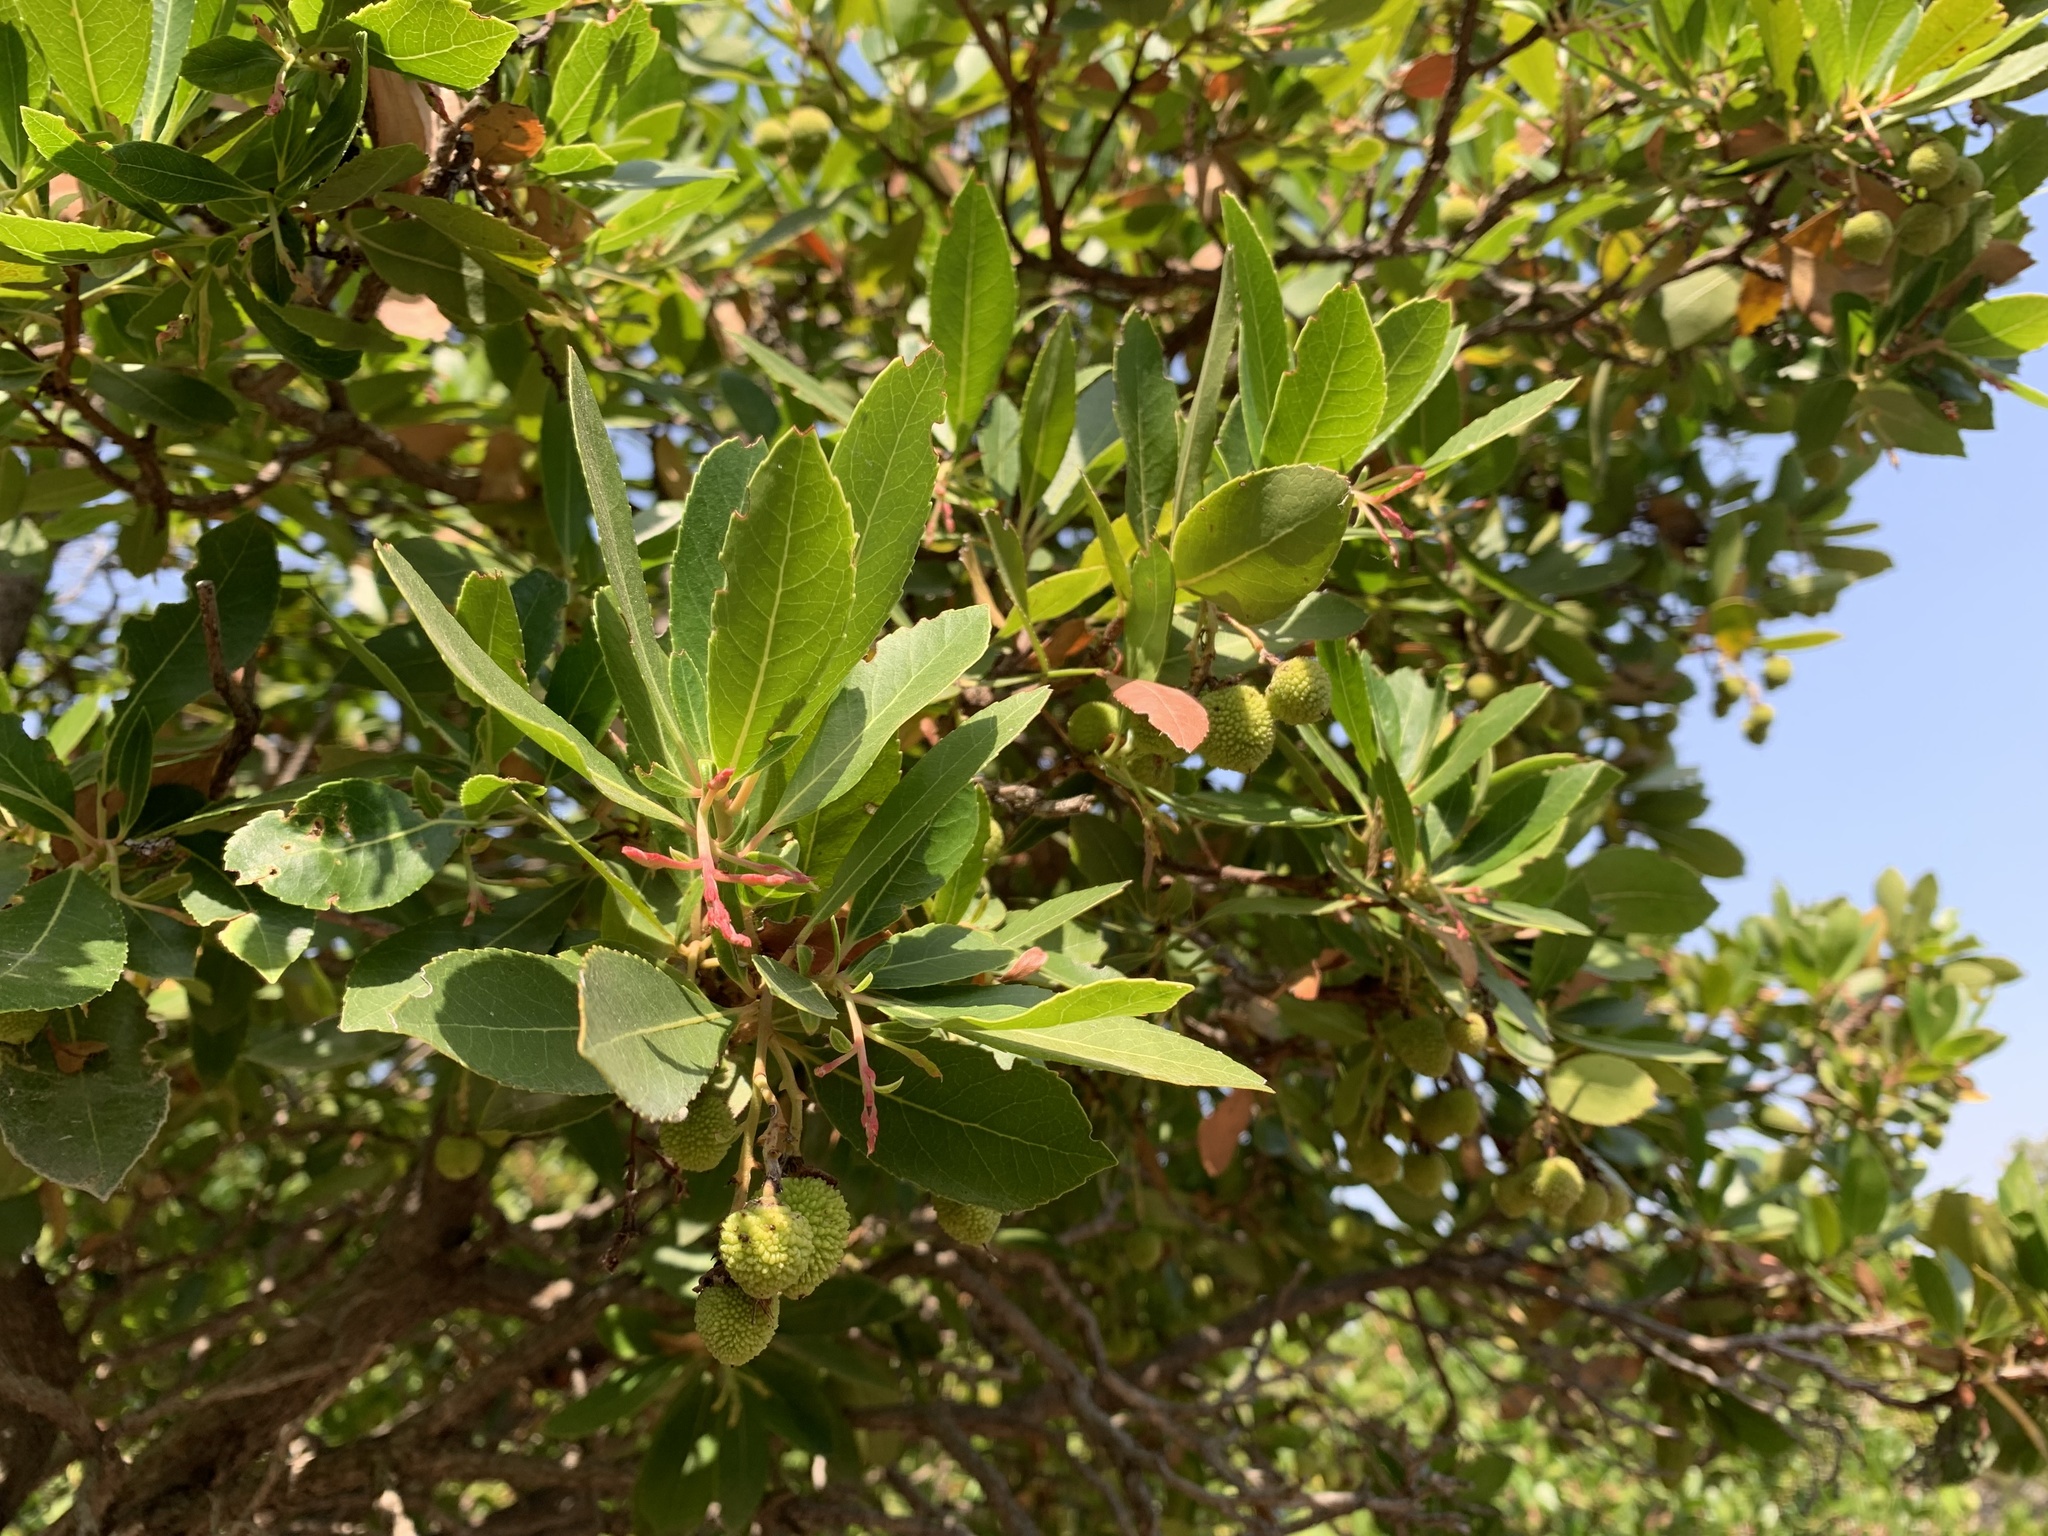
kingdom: Plantae
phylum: Tracheophyta
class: Magnoliopsida
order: Ericales
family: Ericaceae
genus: Arbutus
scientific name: Arbutus unedo
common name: Strawberry-tree
